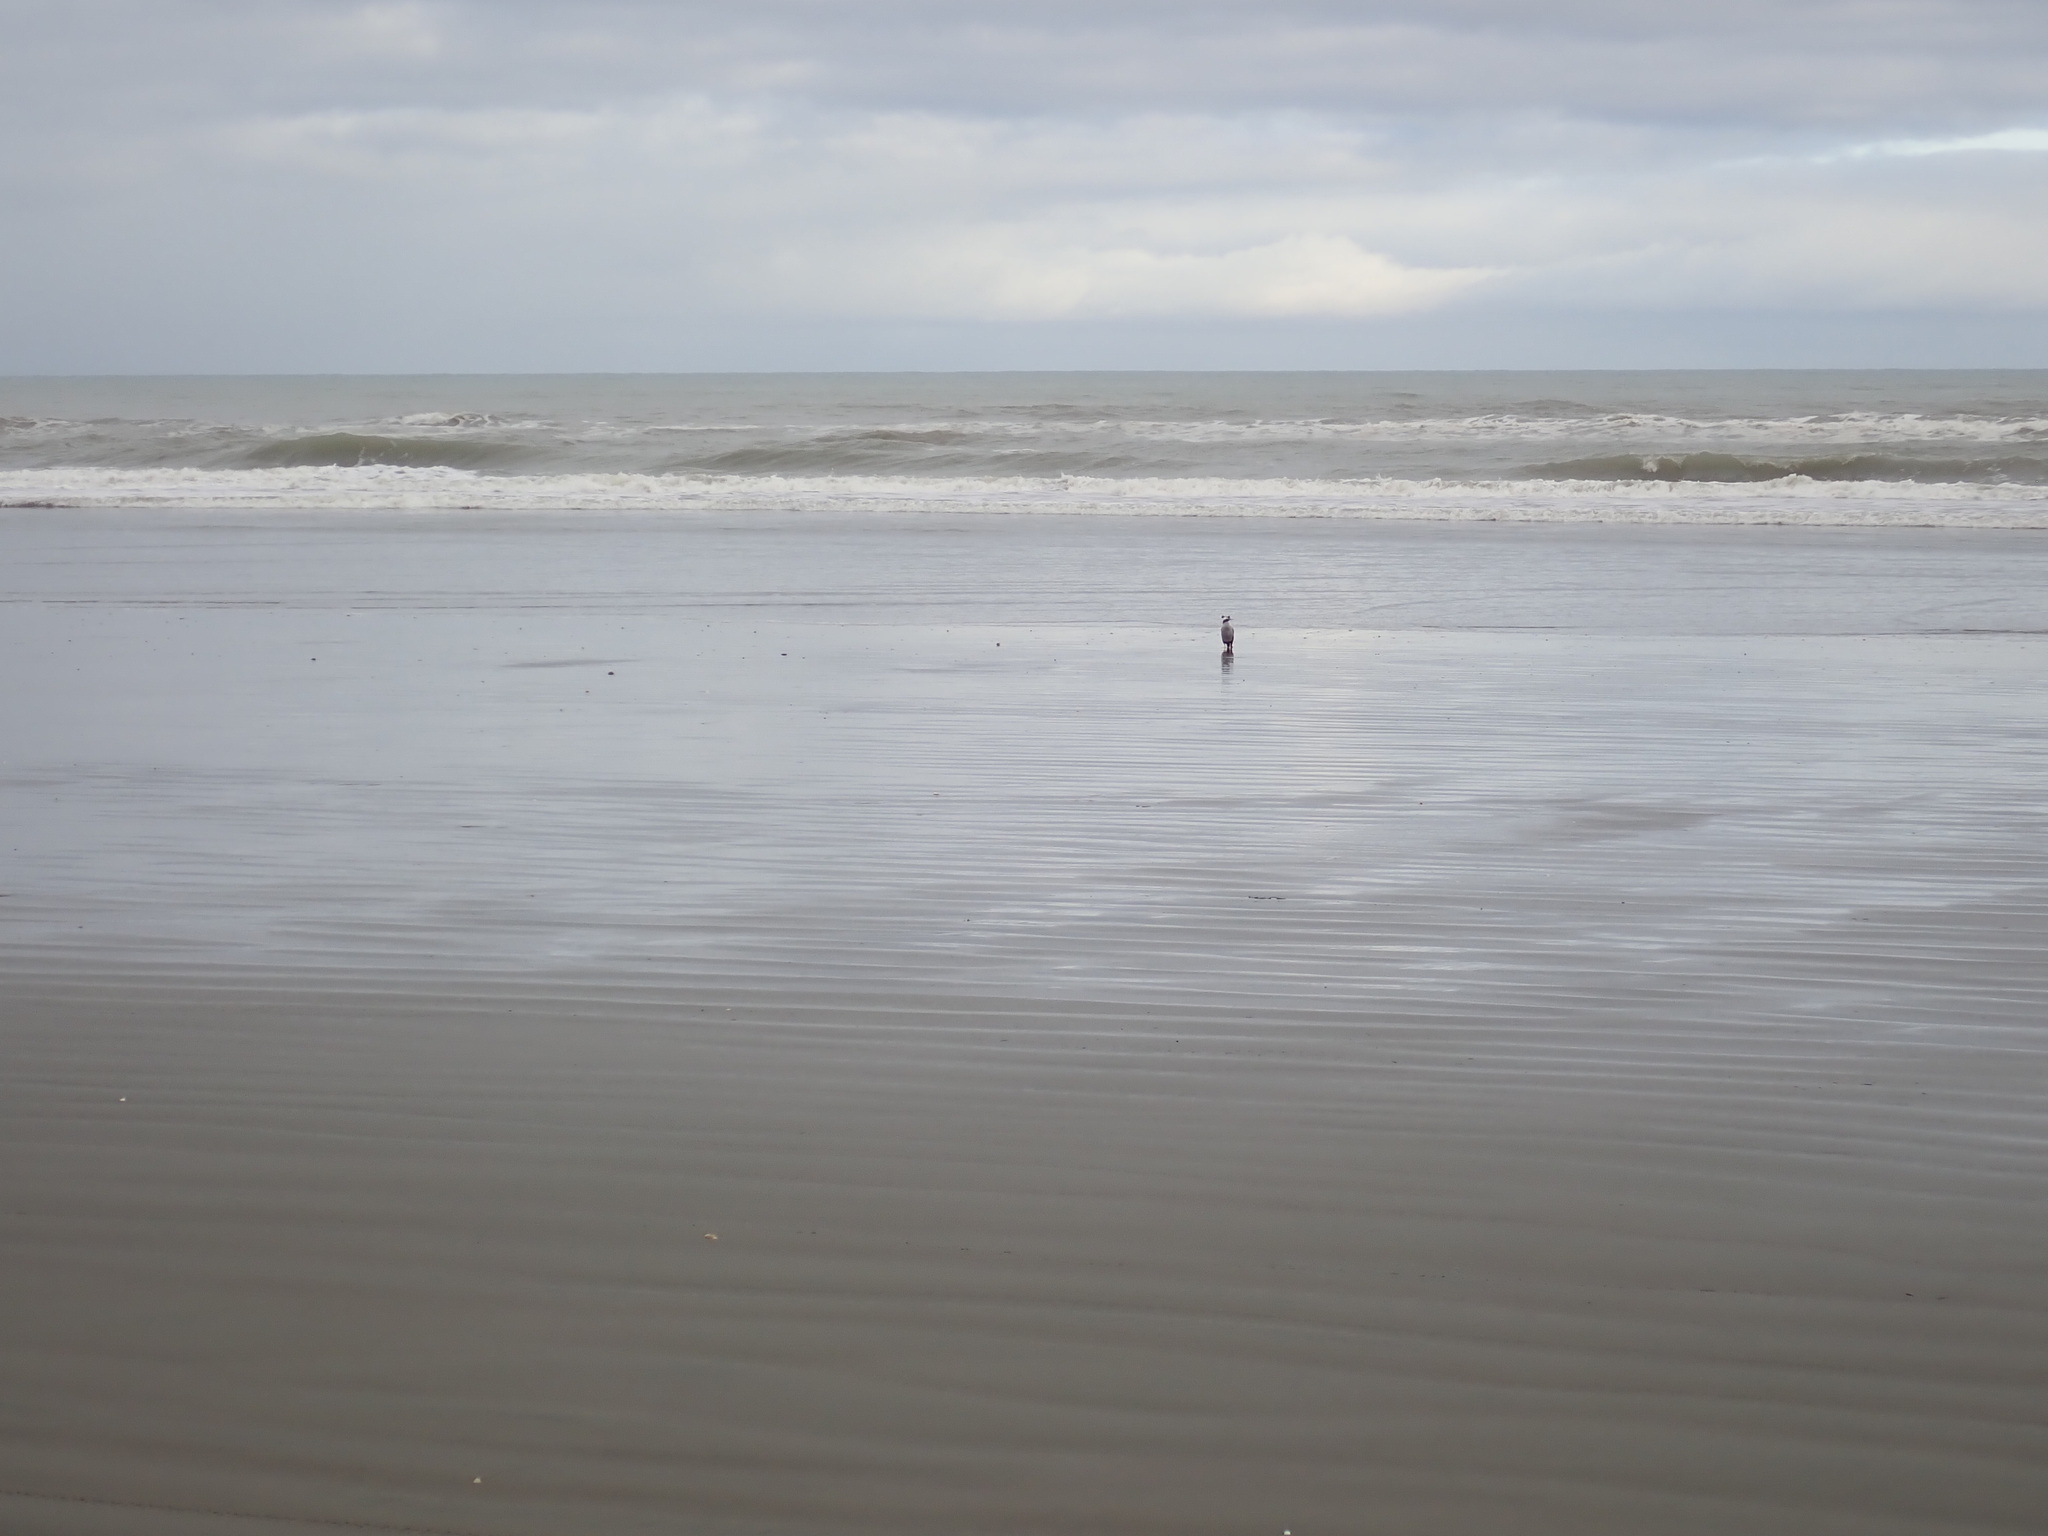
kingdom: Animalia
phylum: Chordata
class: Aves
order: Suliformes
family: Phalacrocoracidae
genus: Phalacrocorax
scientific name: Phalacrocorax punctatus
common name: Spotted shag
